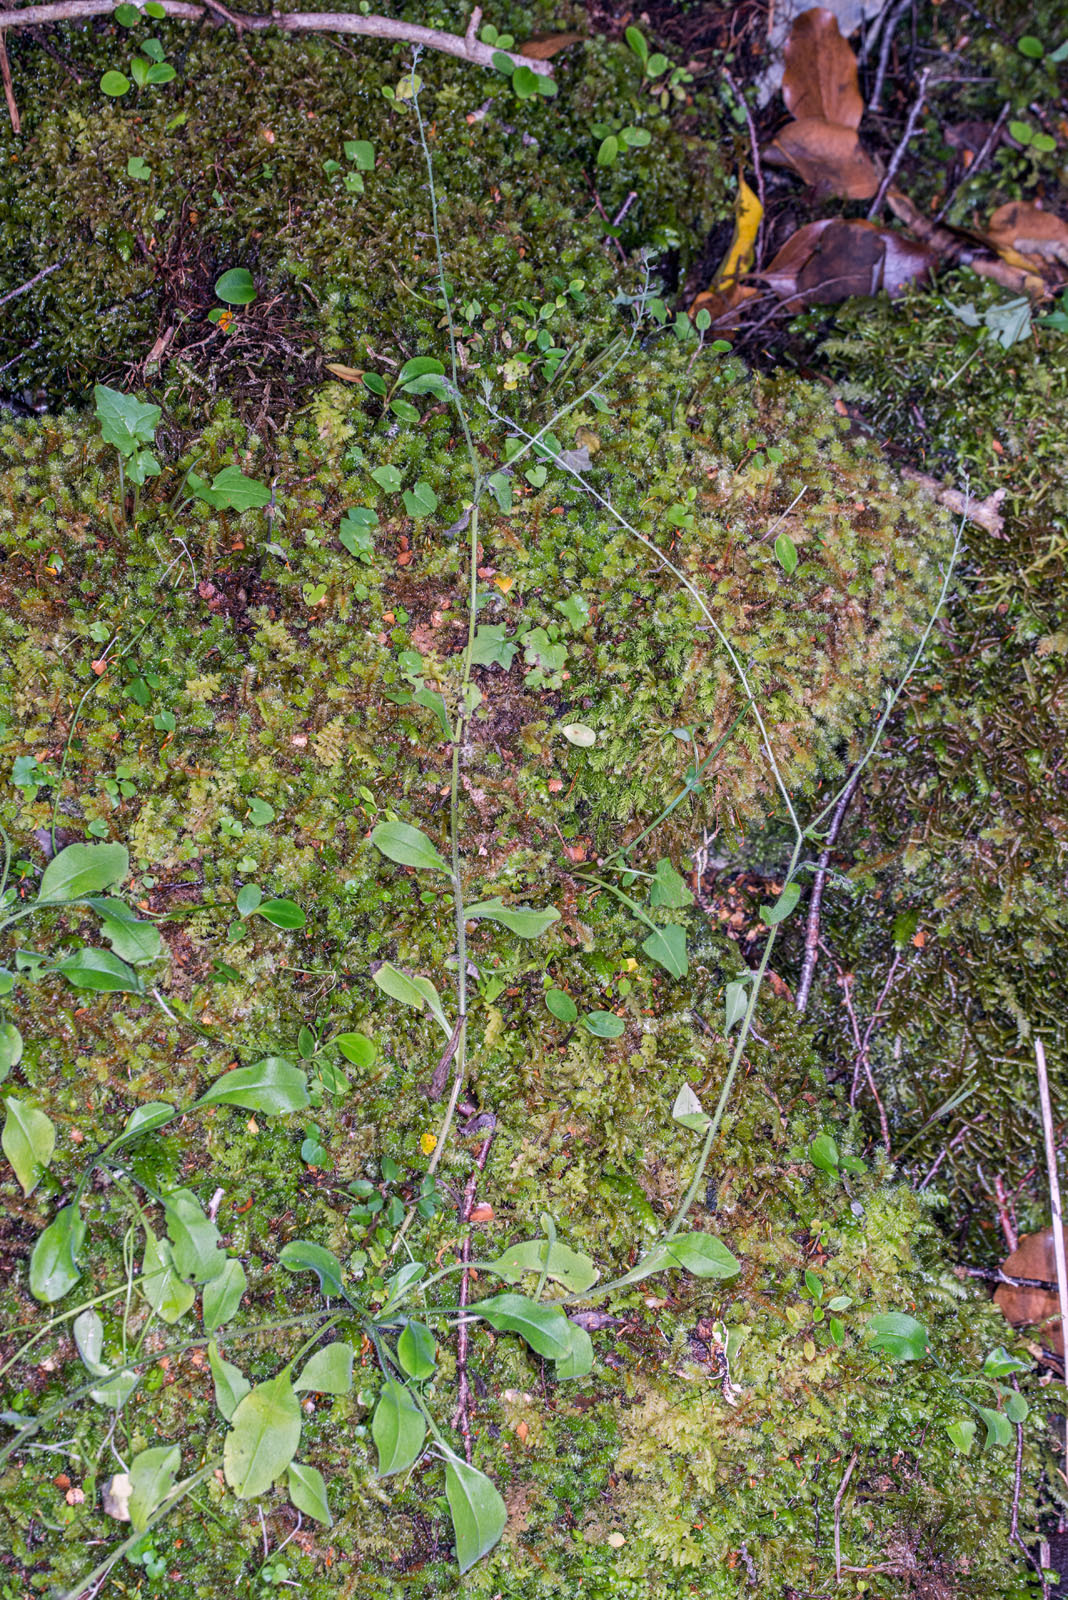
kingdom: Plantae
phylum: Tracheophyta
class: Magnoliopsida
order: Boraginales
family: Boraginaceae
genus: Myosotis
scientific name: Myosotis mooreana
